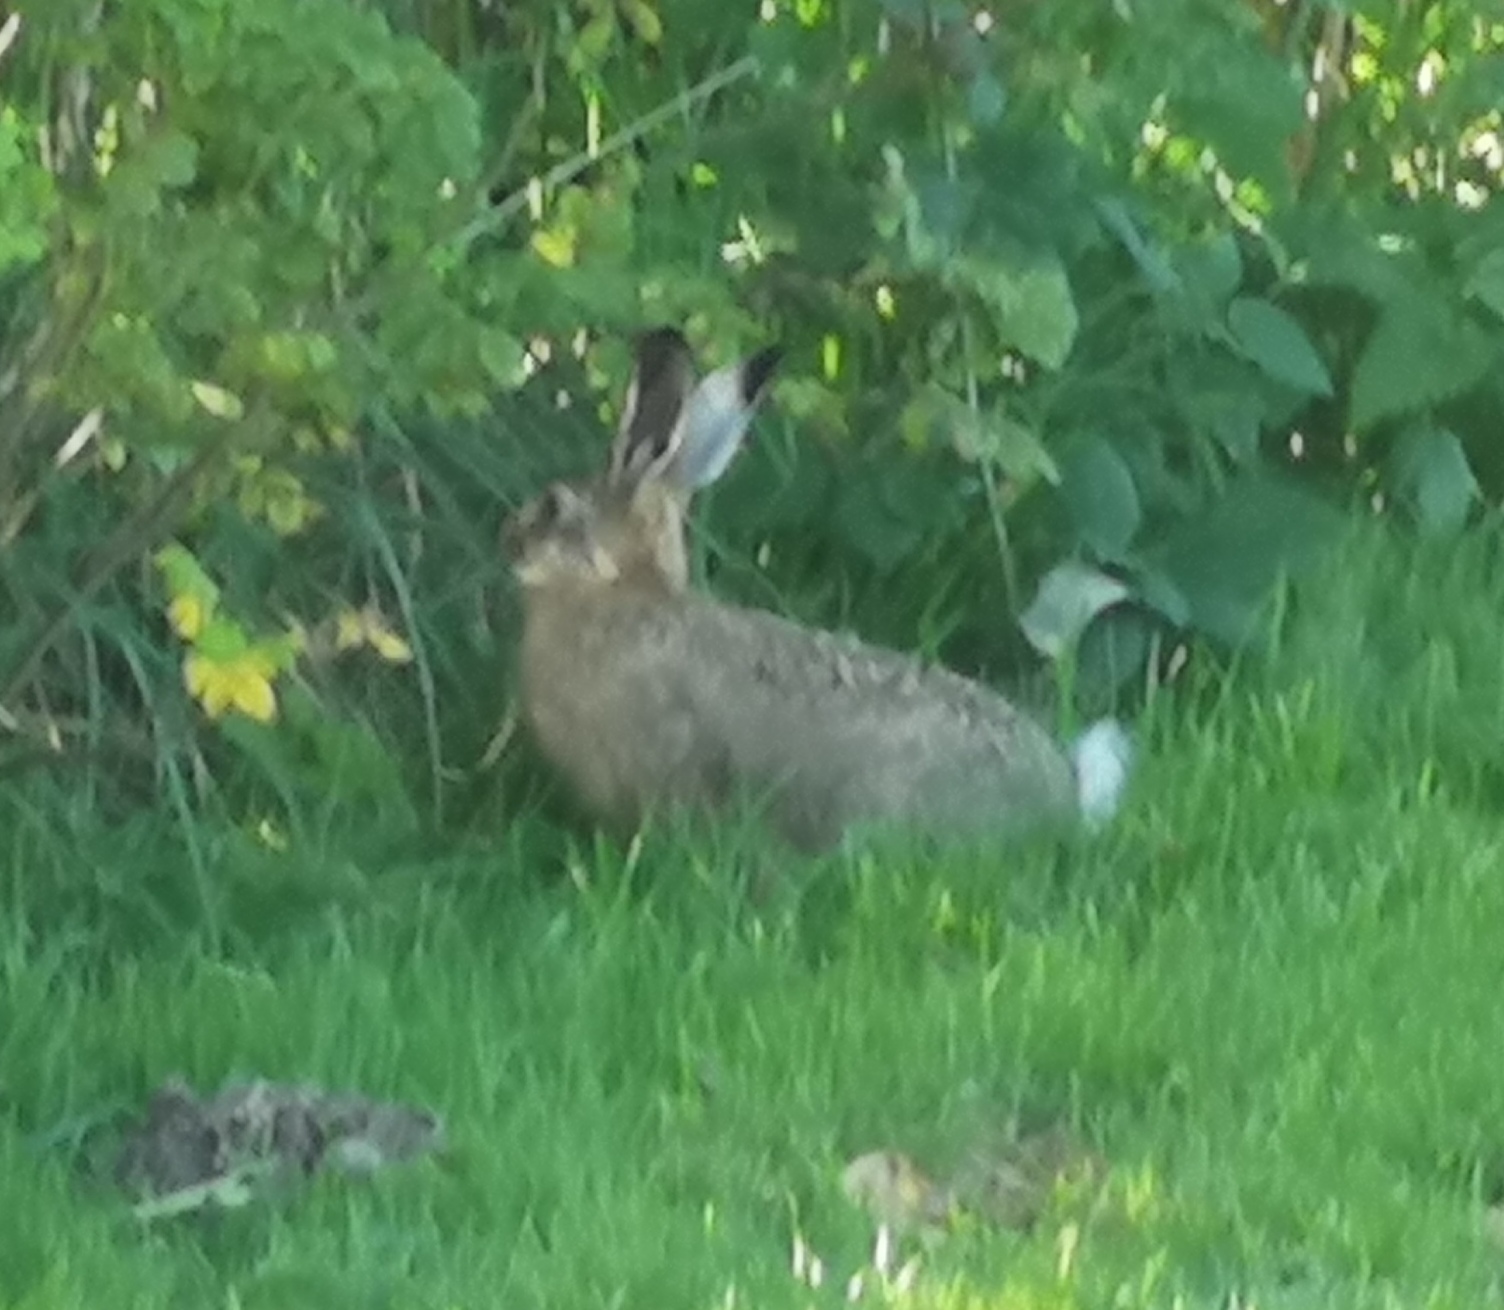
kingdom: Animalia
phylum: Chordata
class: Mammalia
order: Lagomorpha
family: Leporidae
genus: Lepus
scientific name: Lepus europaeus
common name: European hare
